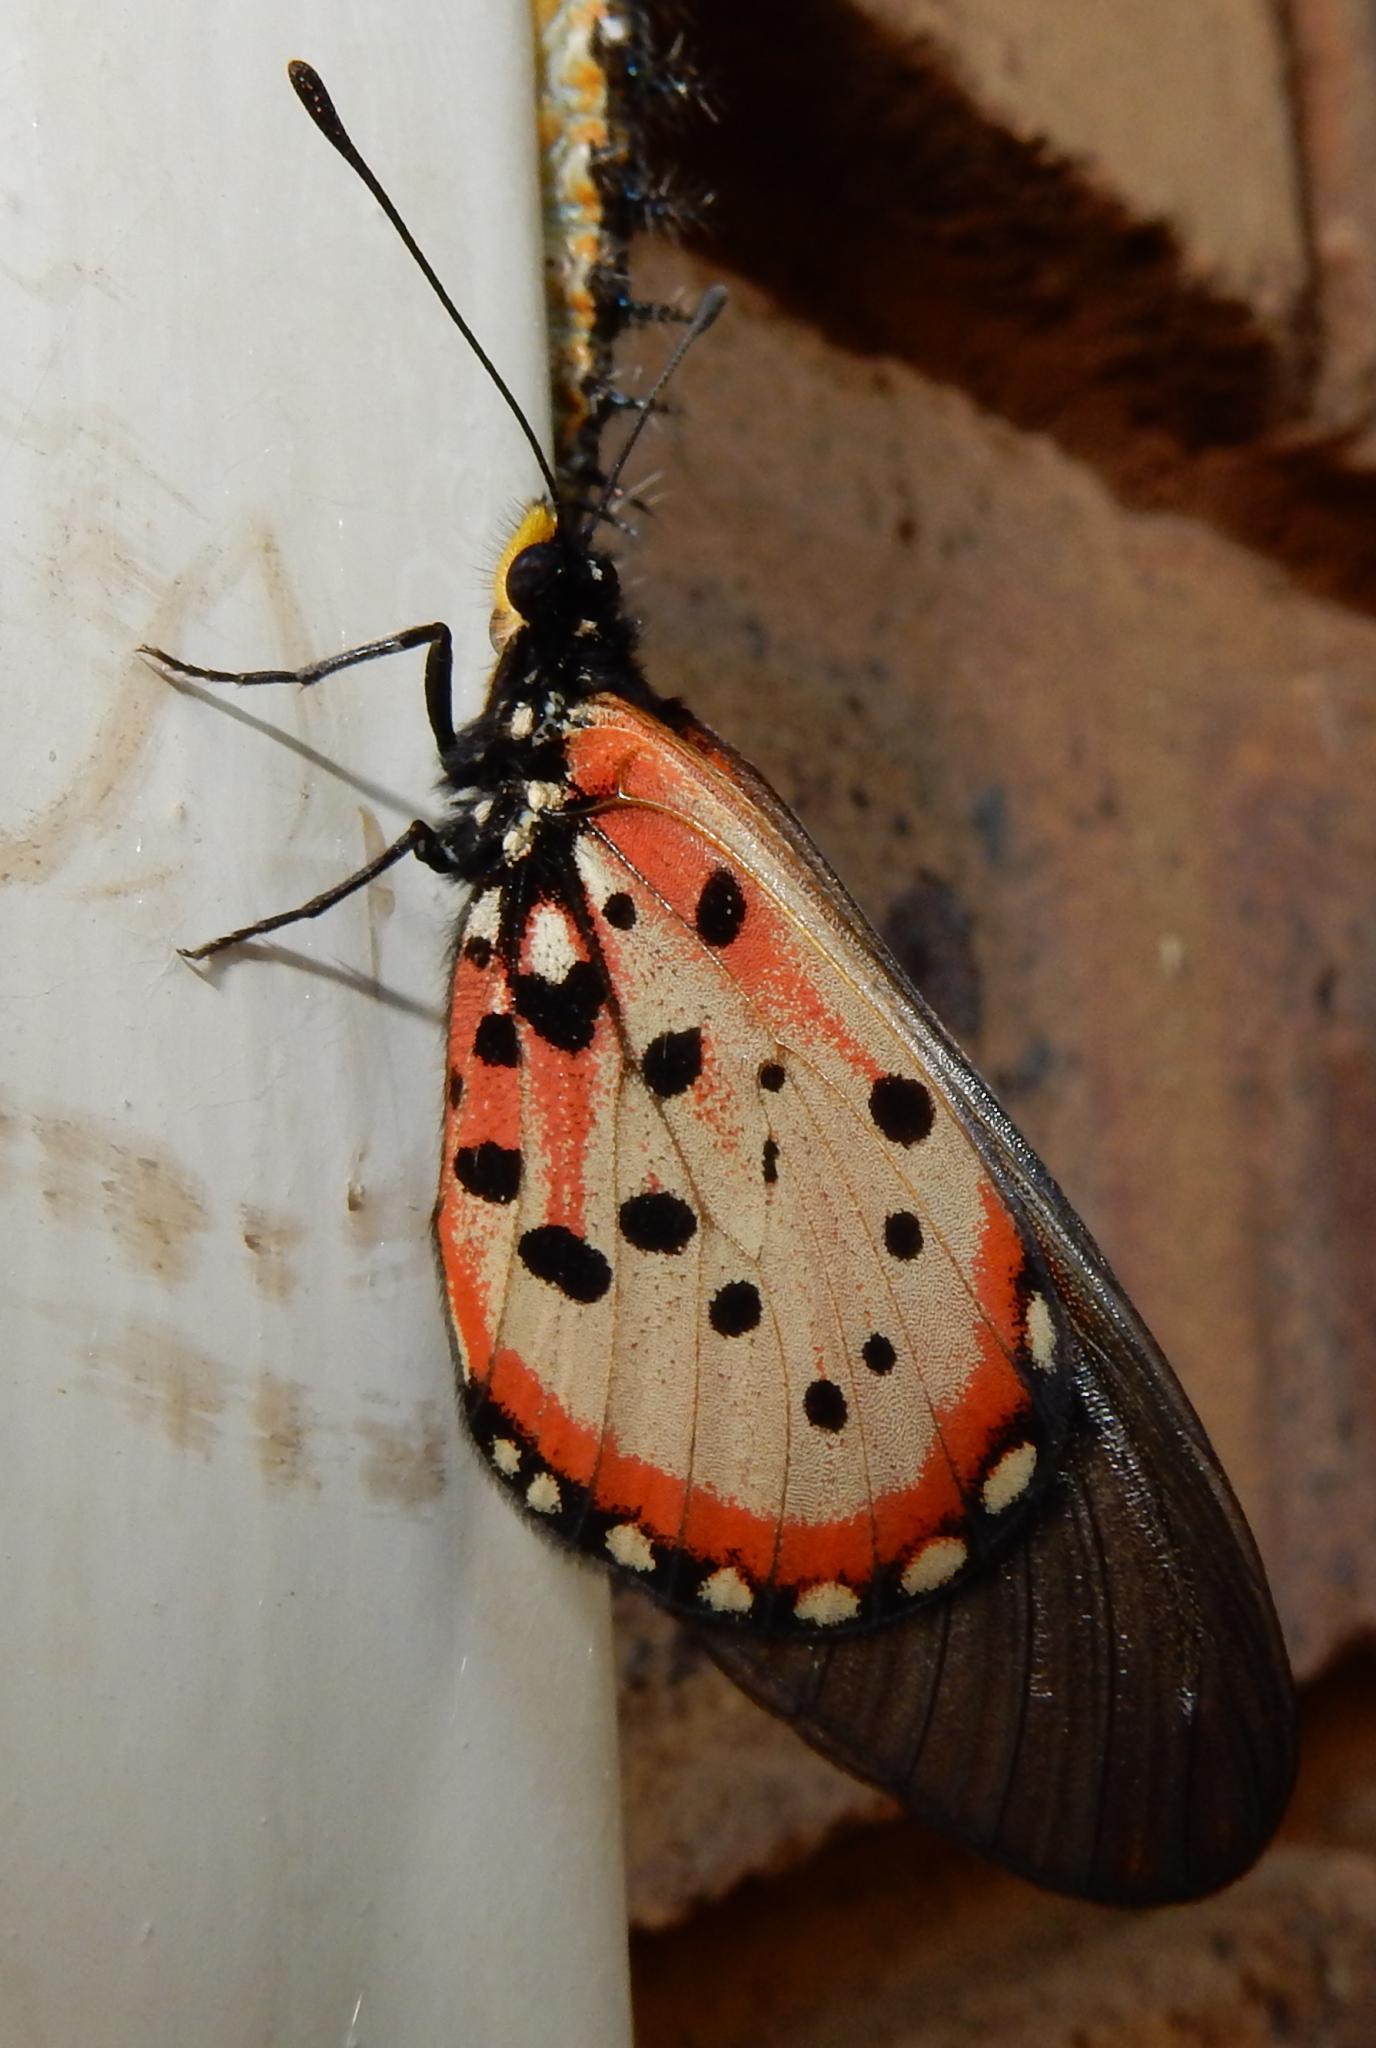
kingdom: Animalia
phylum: Arthropoda
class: Insecta
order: Lepidoptera
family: Nymphalidae
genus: Acraea
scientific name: Acraea horta
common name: Garden acraea
